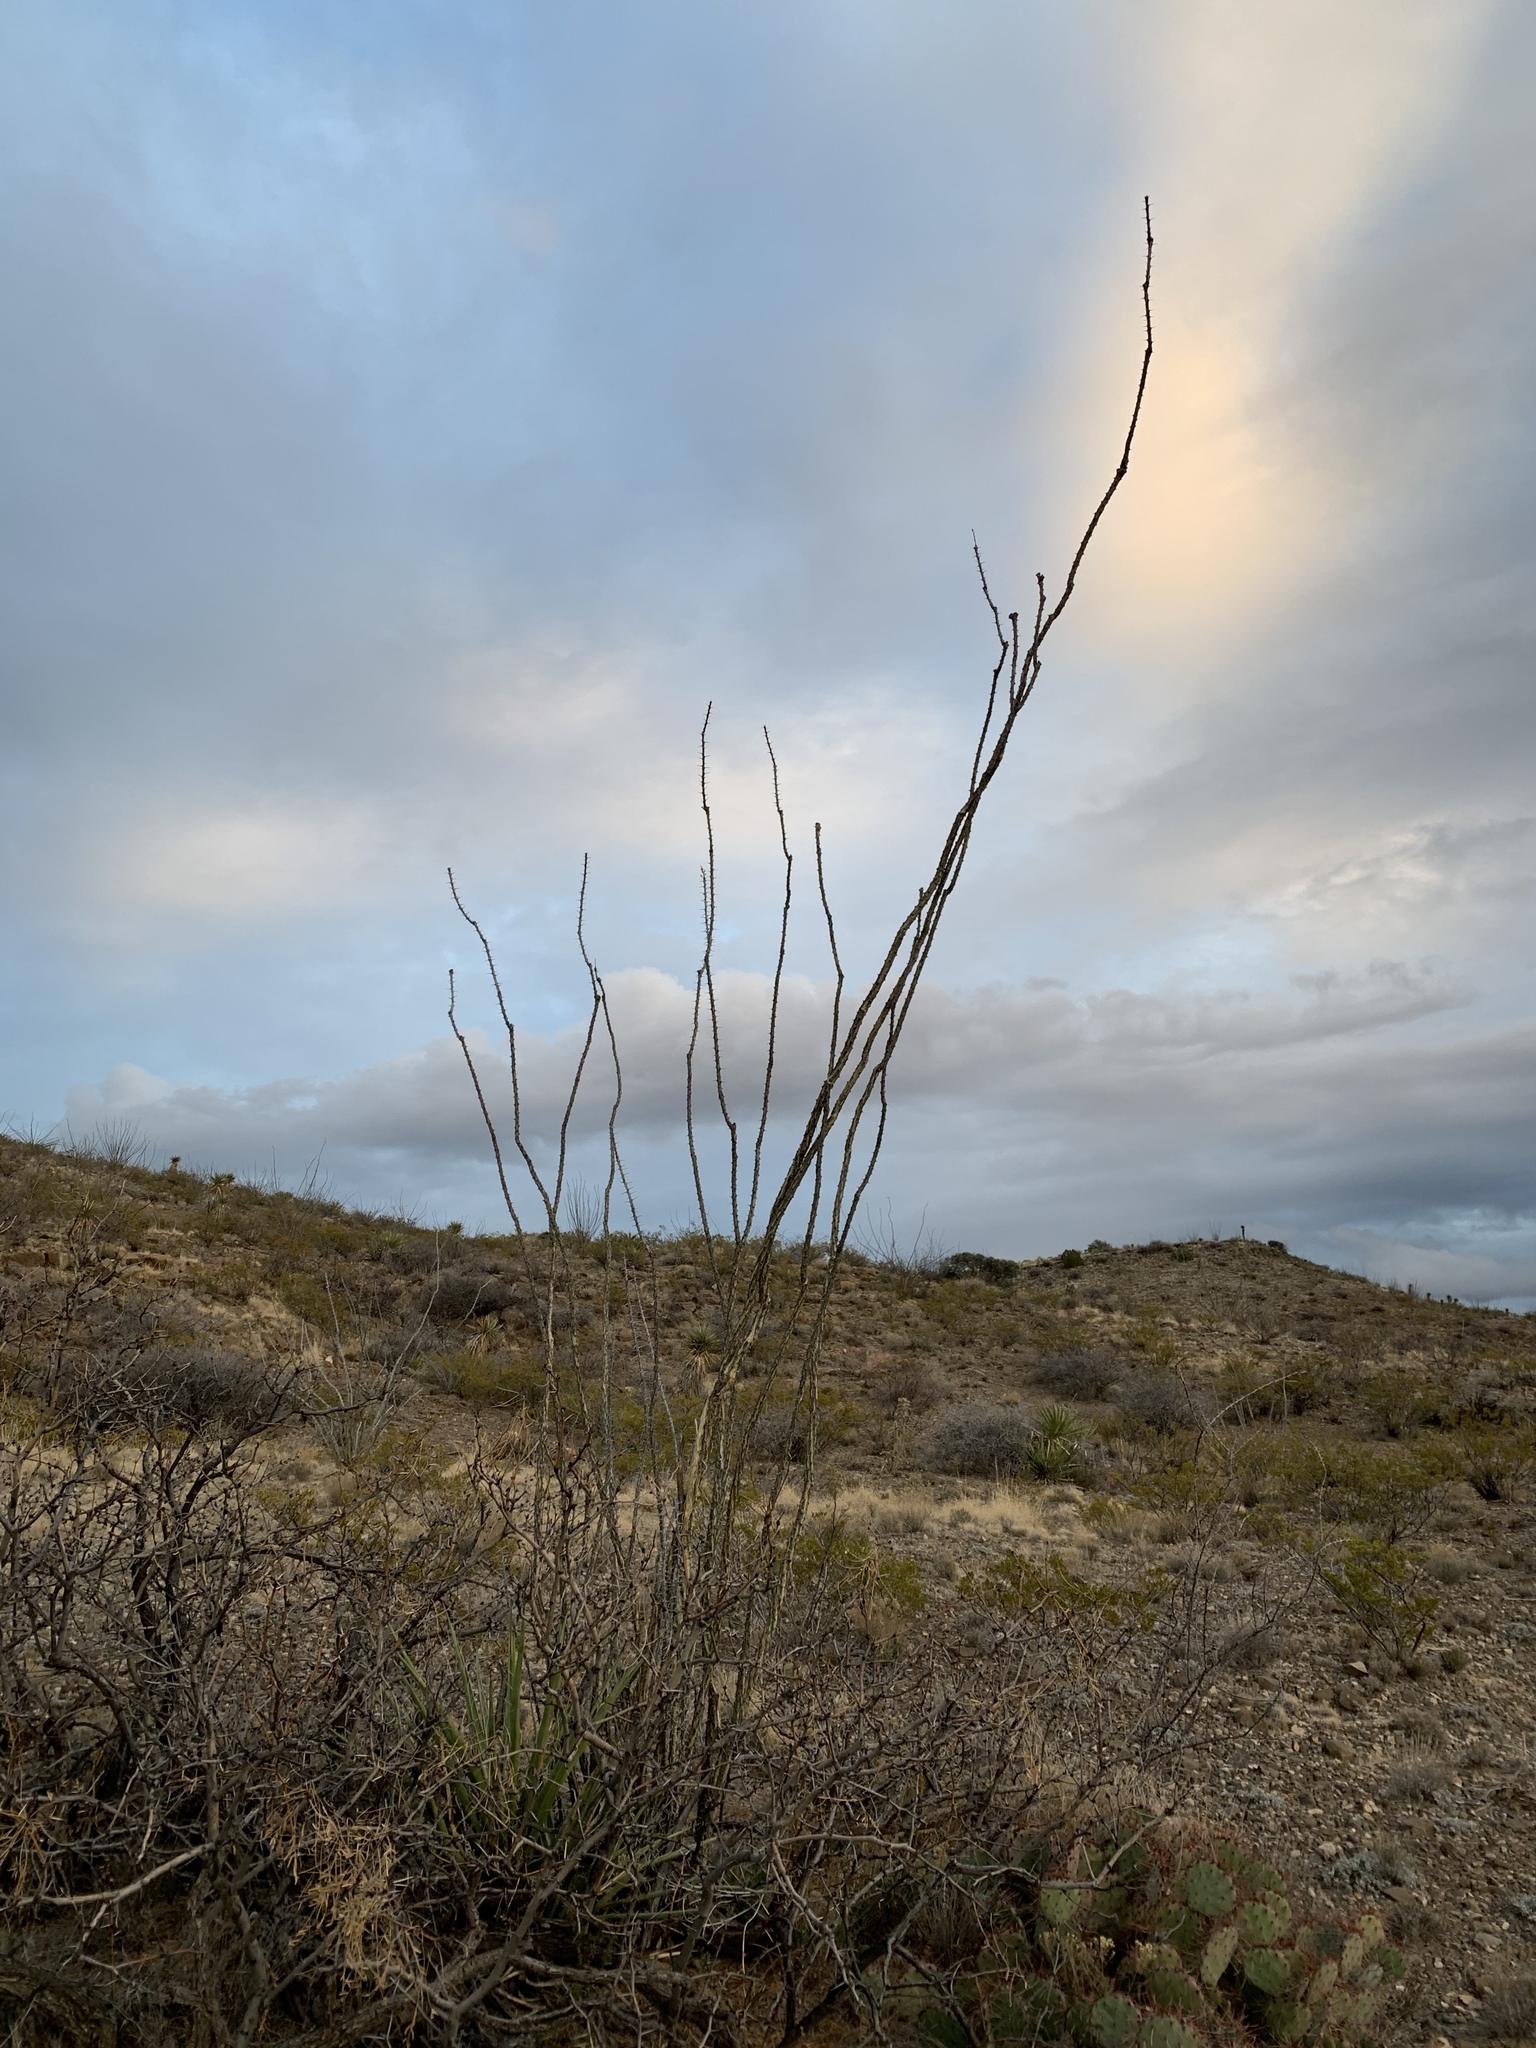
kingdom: Plantae
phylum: Tracheophyta
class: Magnoliopsida
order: Ericales
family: Fouquieriaceae
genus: Fouquieria
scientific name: Fouquieria splendens
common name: Vine-cactus
